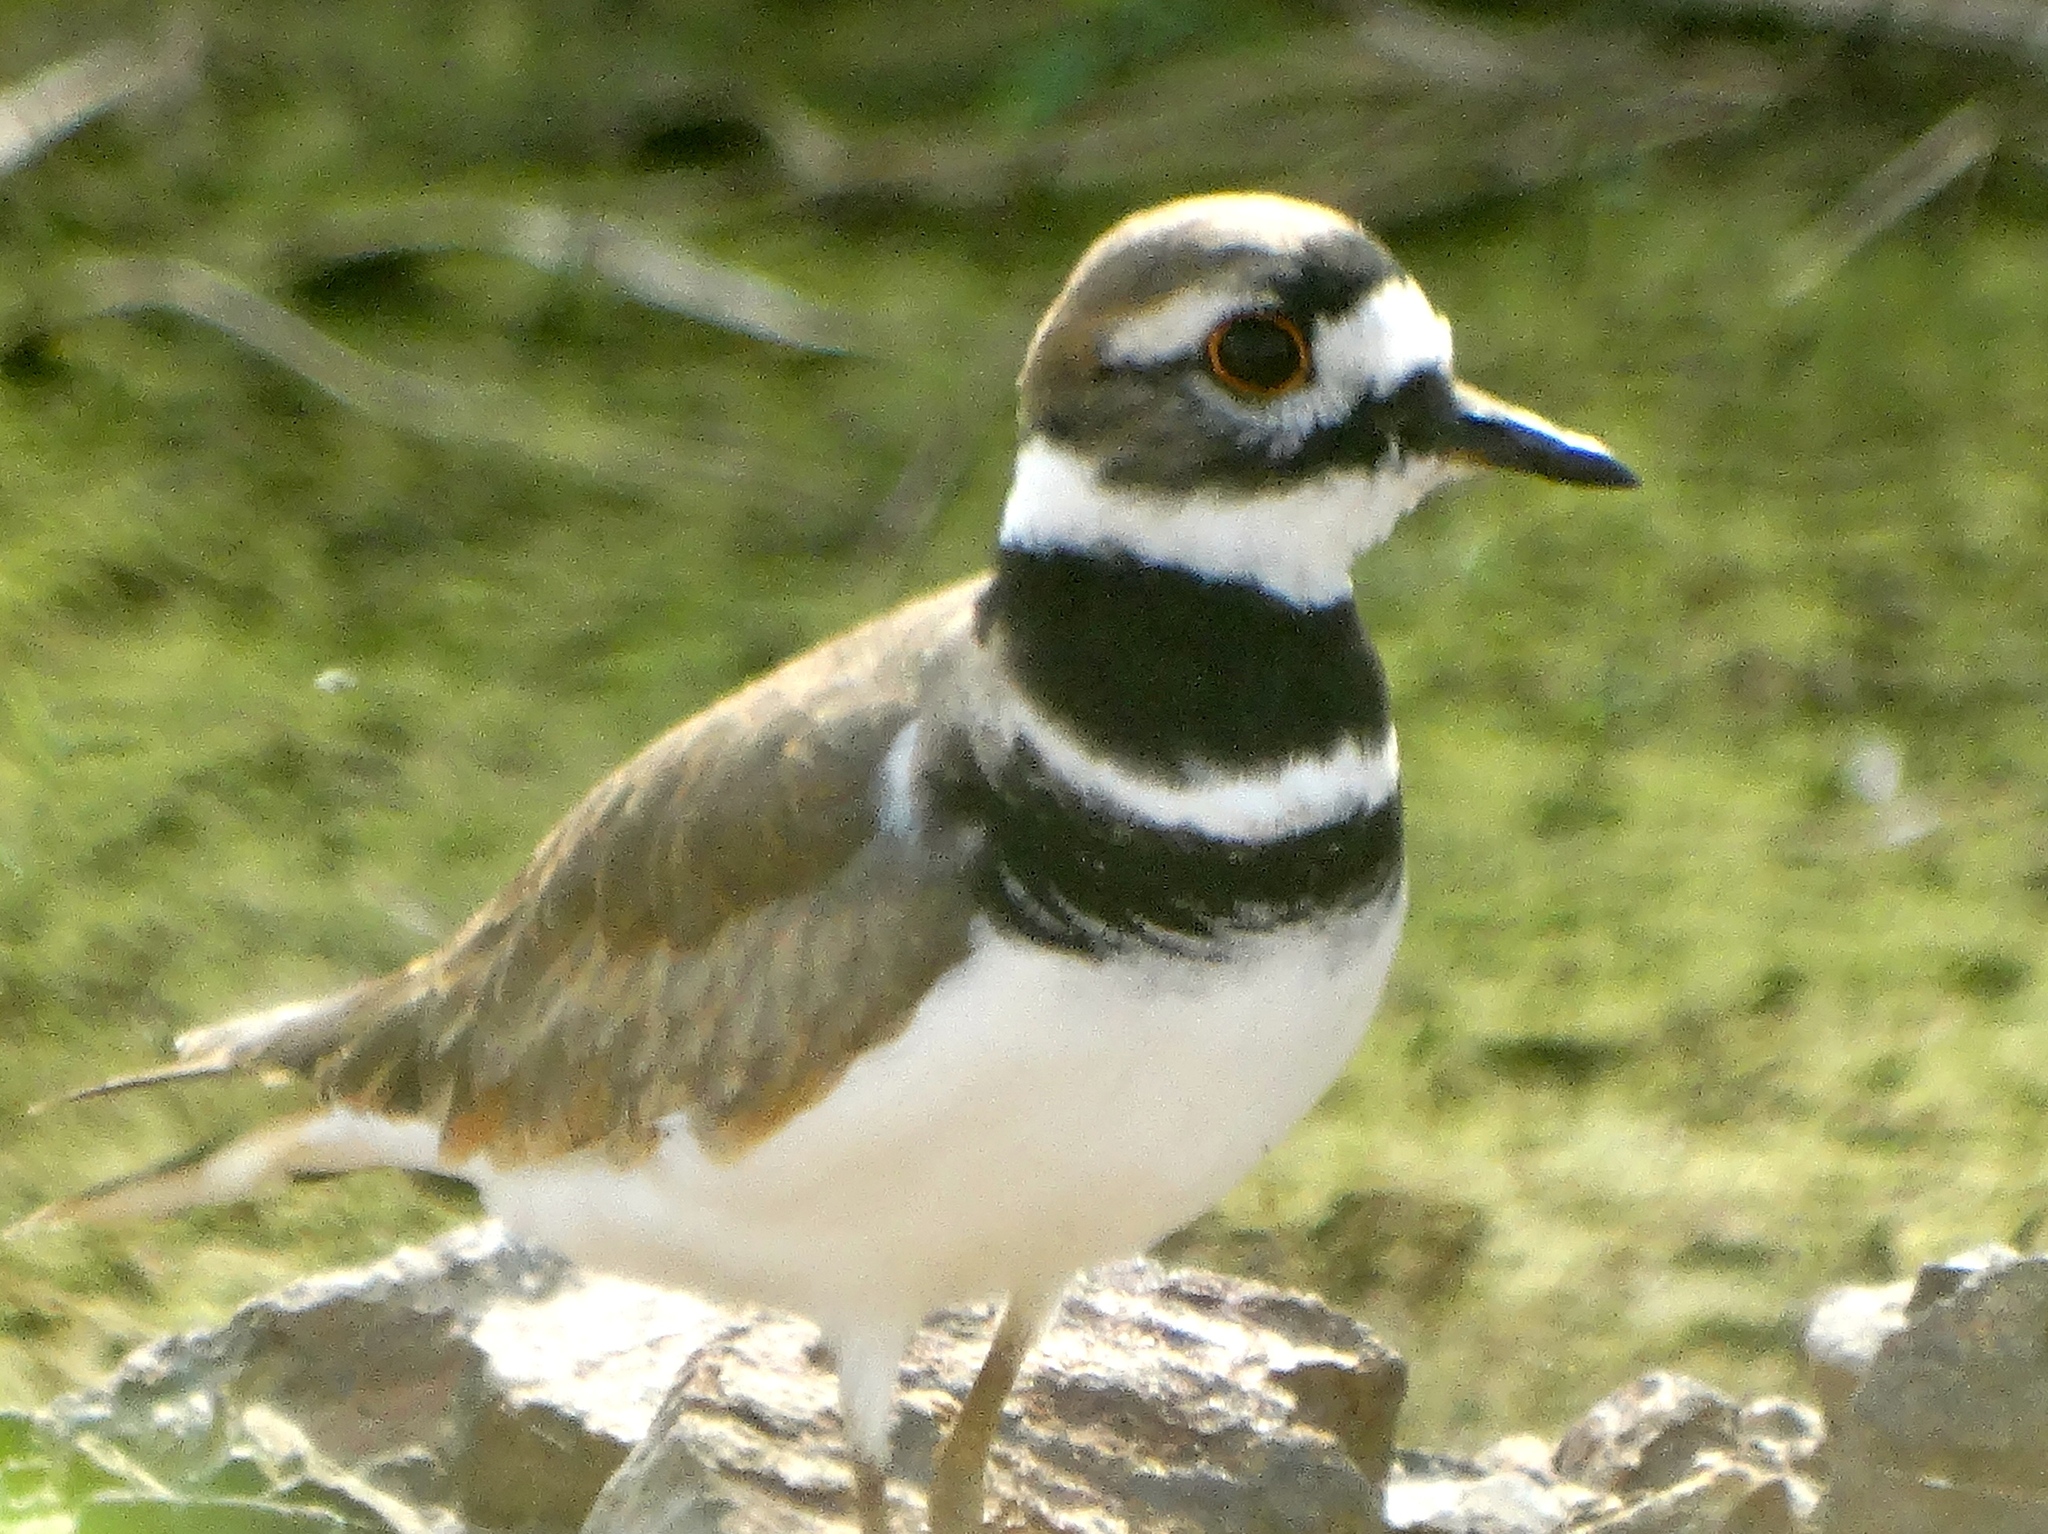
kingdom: Animalia
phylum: Chordata
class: Aves
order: Charadriiformes
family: Charadriidae
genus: Charadrius
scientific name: Charadrius vociferus
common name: Killdeer
